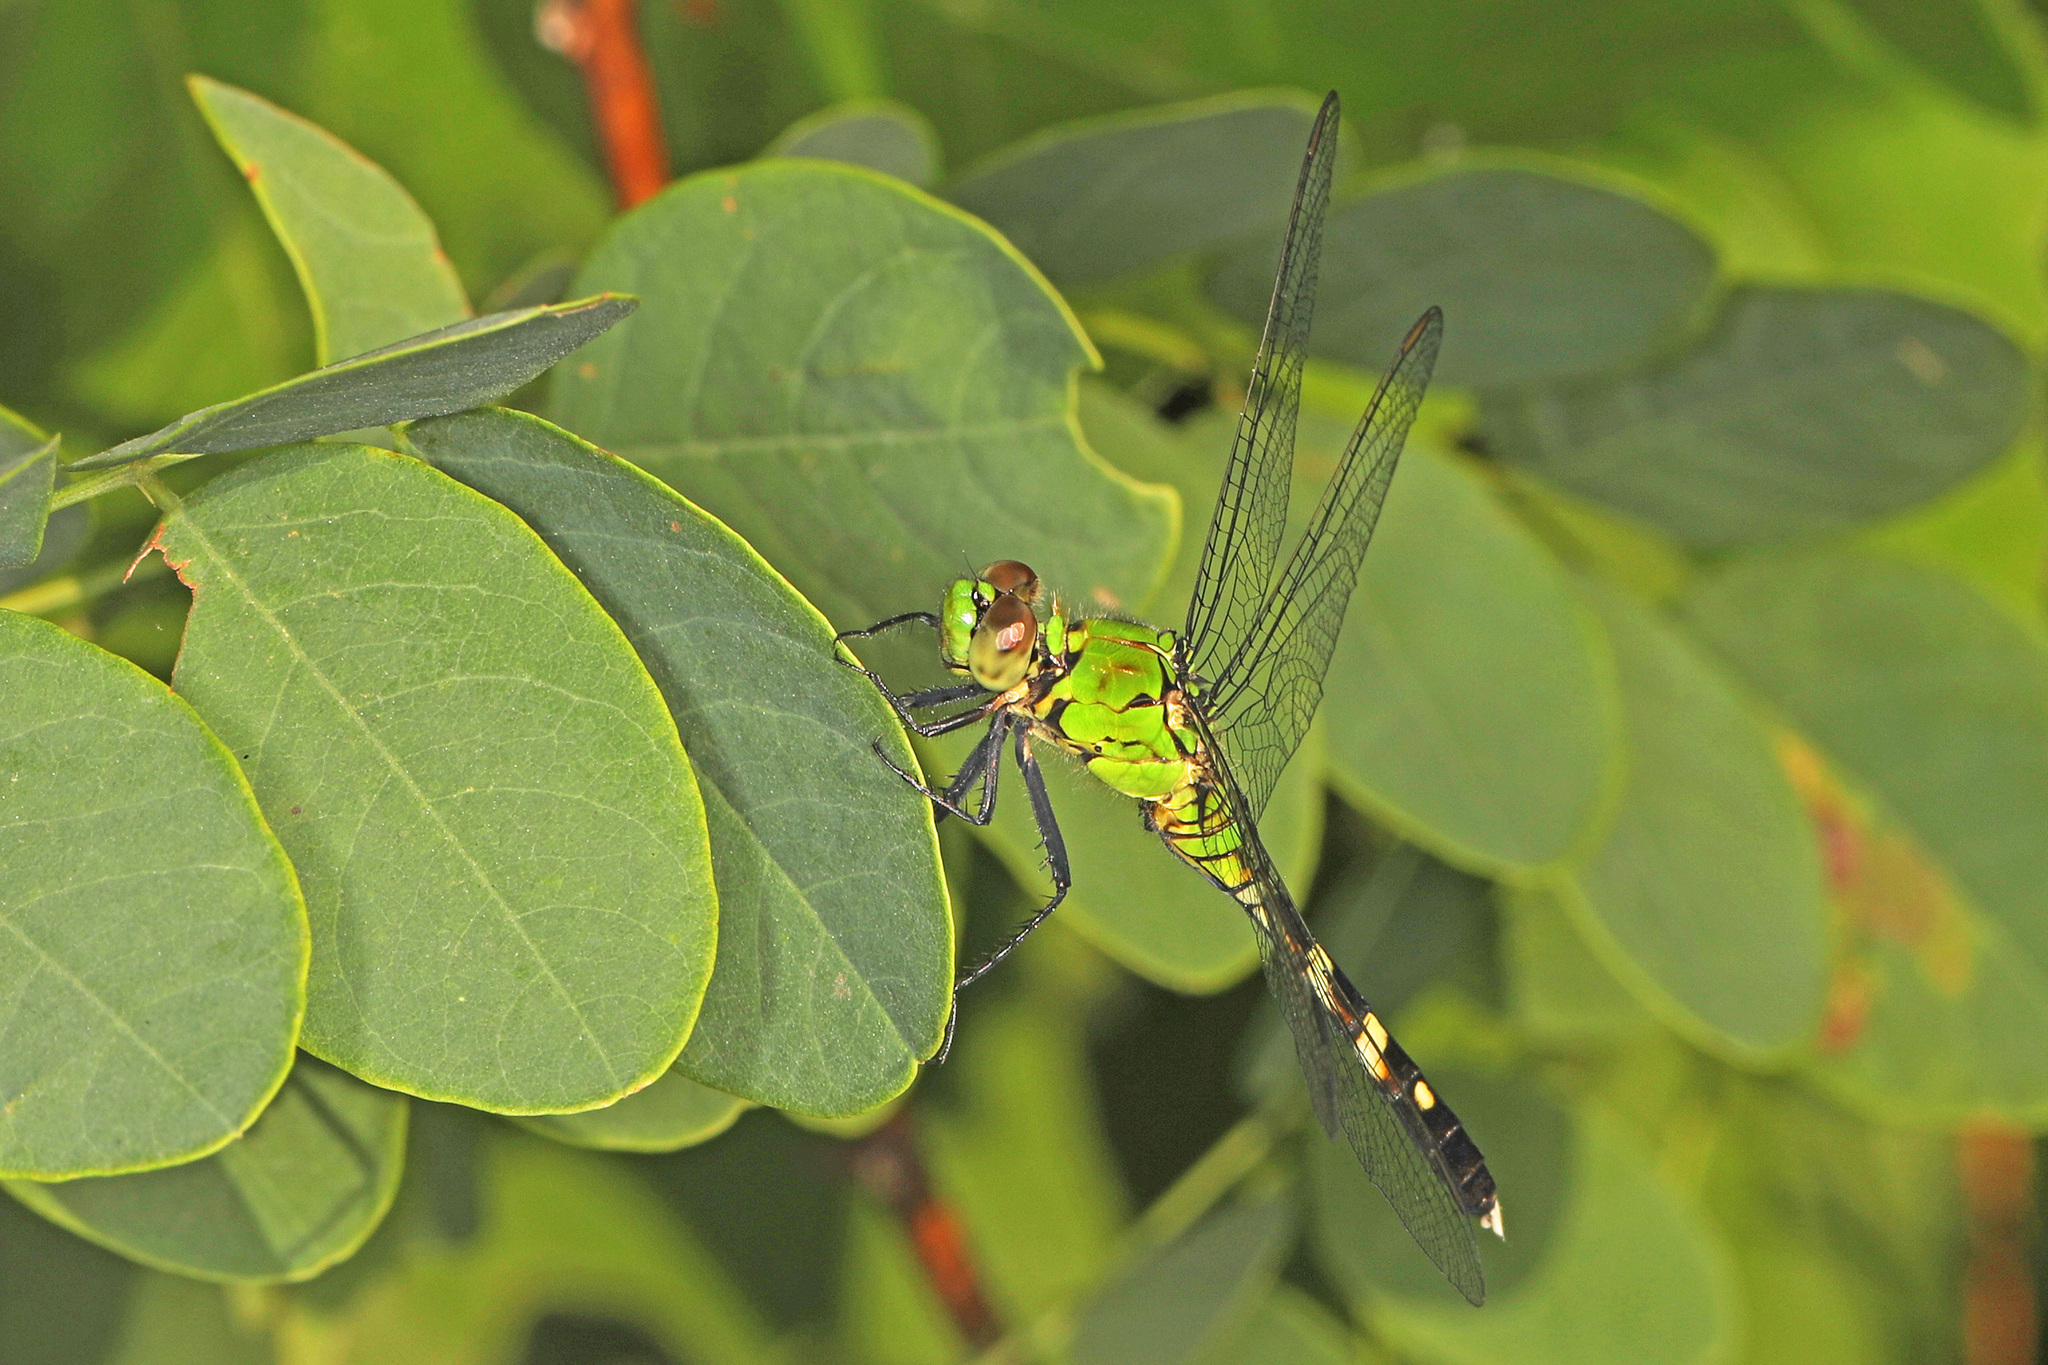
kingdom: Animalia
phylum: Arthropoda
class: Insecta
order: Odonata
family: Libellulidae
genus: Erythemis
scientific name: Erythemis simplicicollis
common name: Eastern pondhawk
